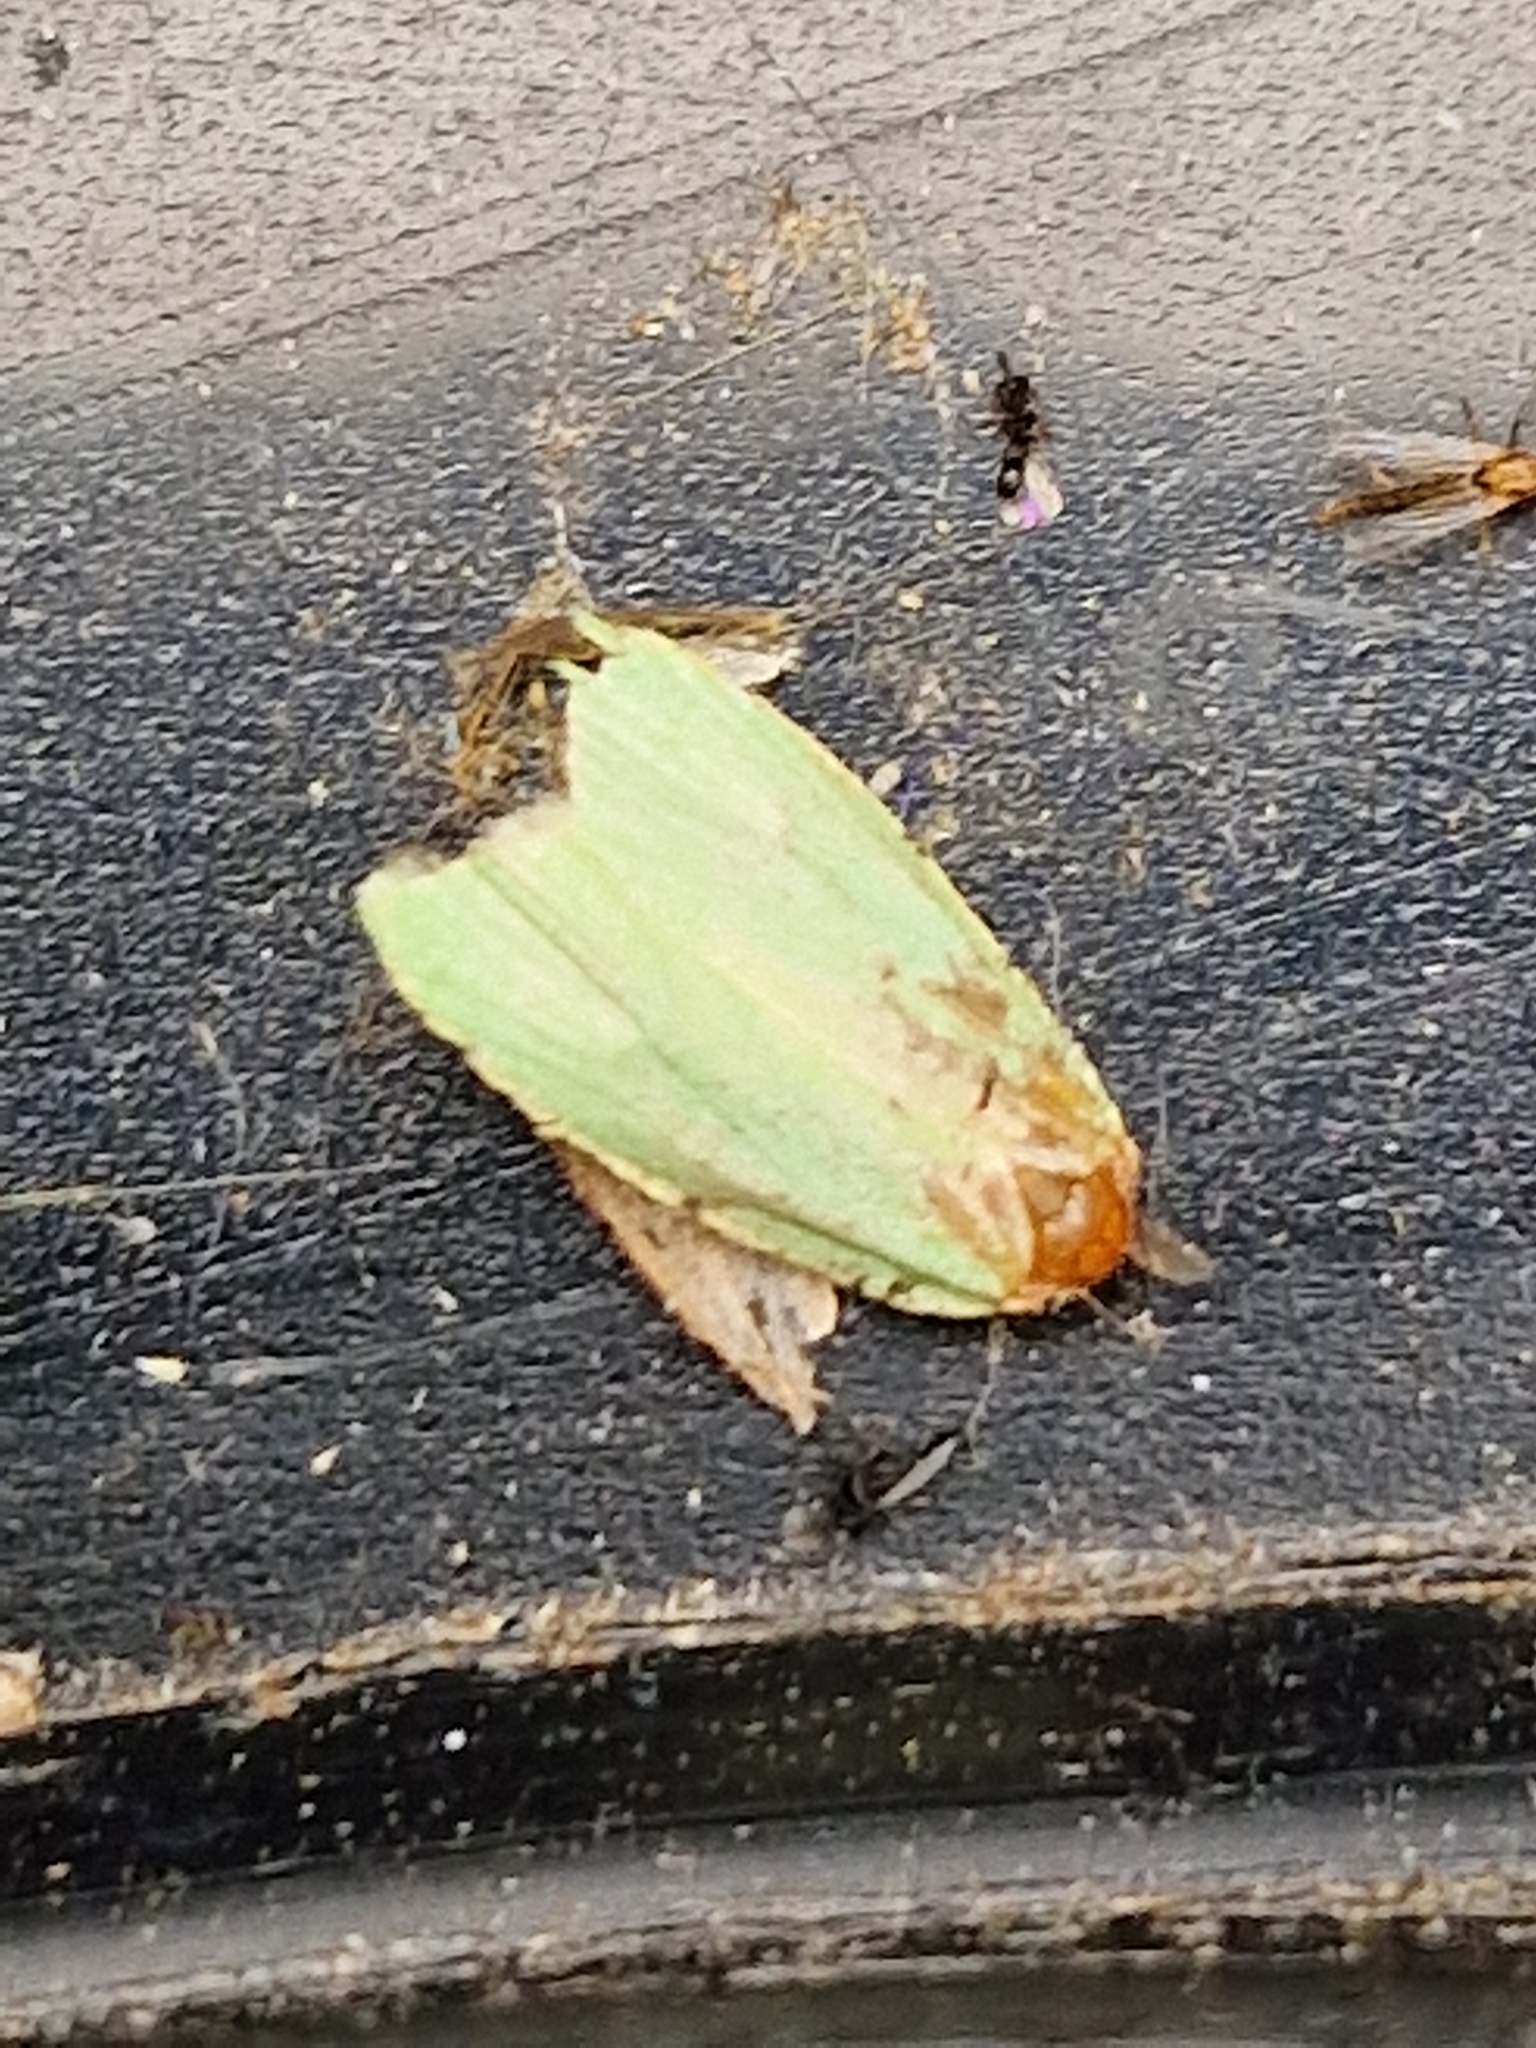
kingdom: Animalia
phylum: Arthropoda
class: Insecta
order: Lepidoptera
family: Tortricidae
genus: Tortrix
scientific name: Tortrix viridana
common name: Green oak tortrix
